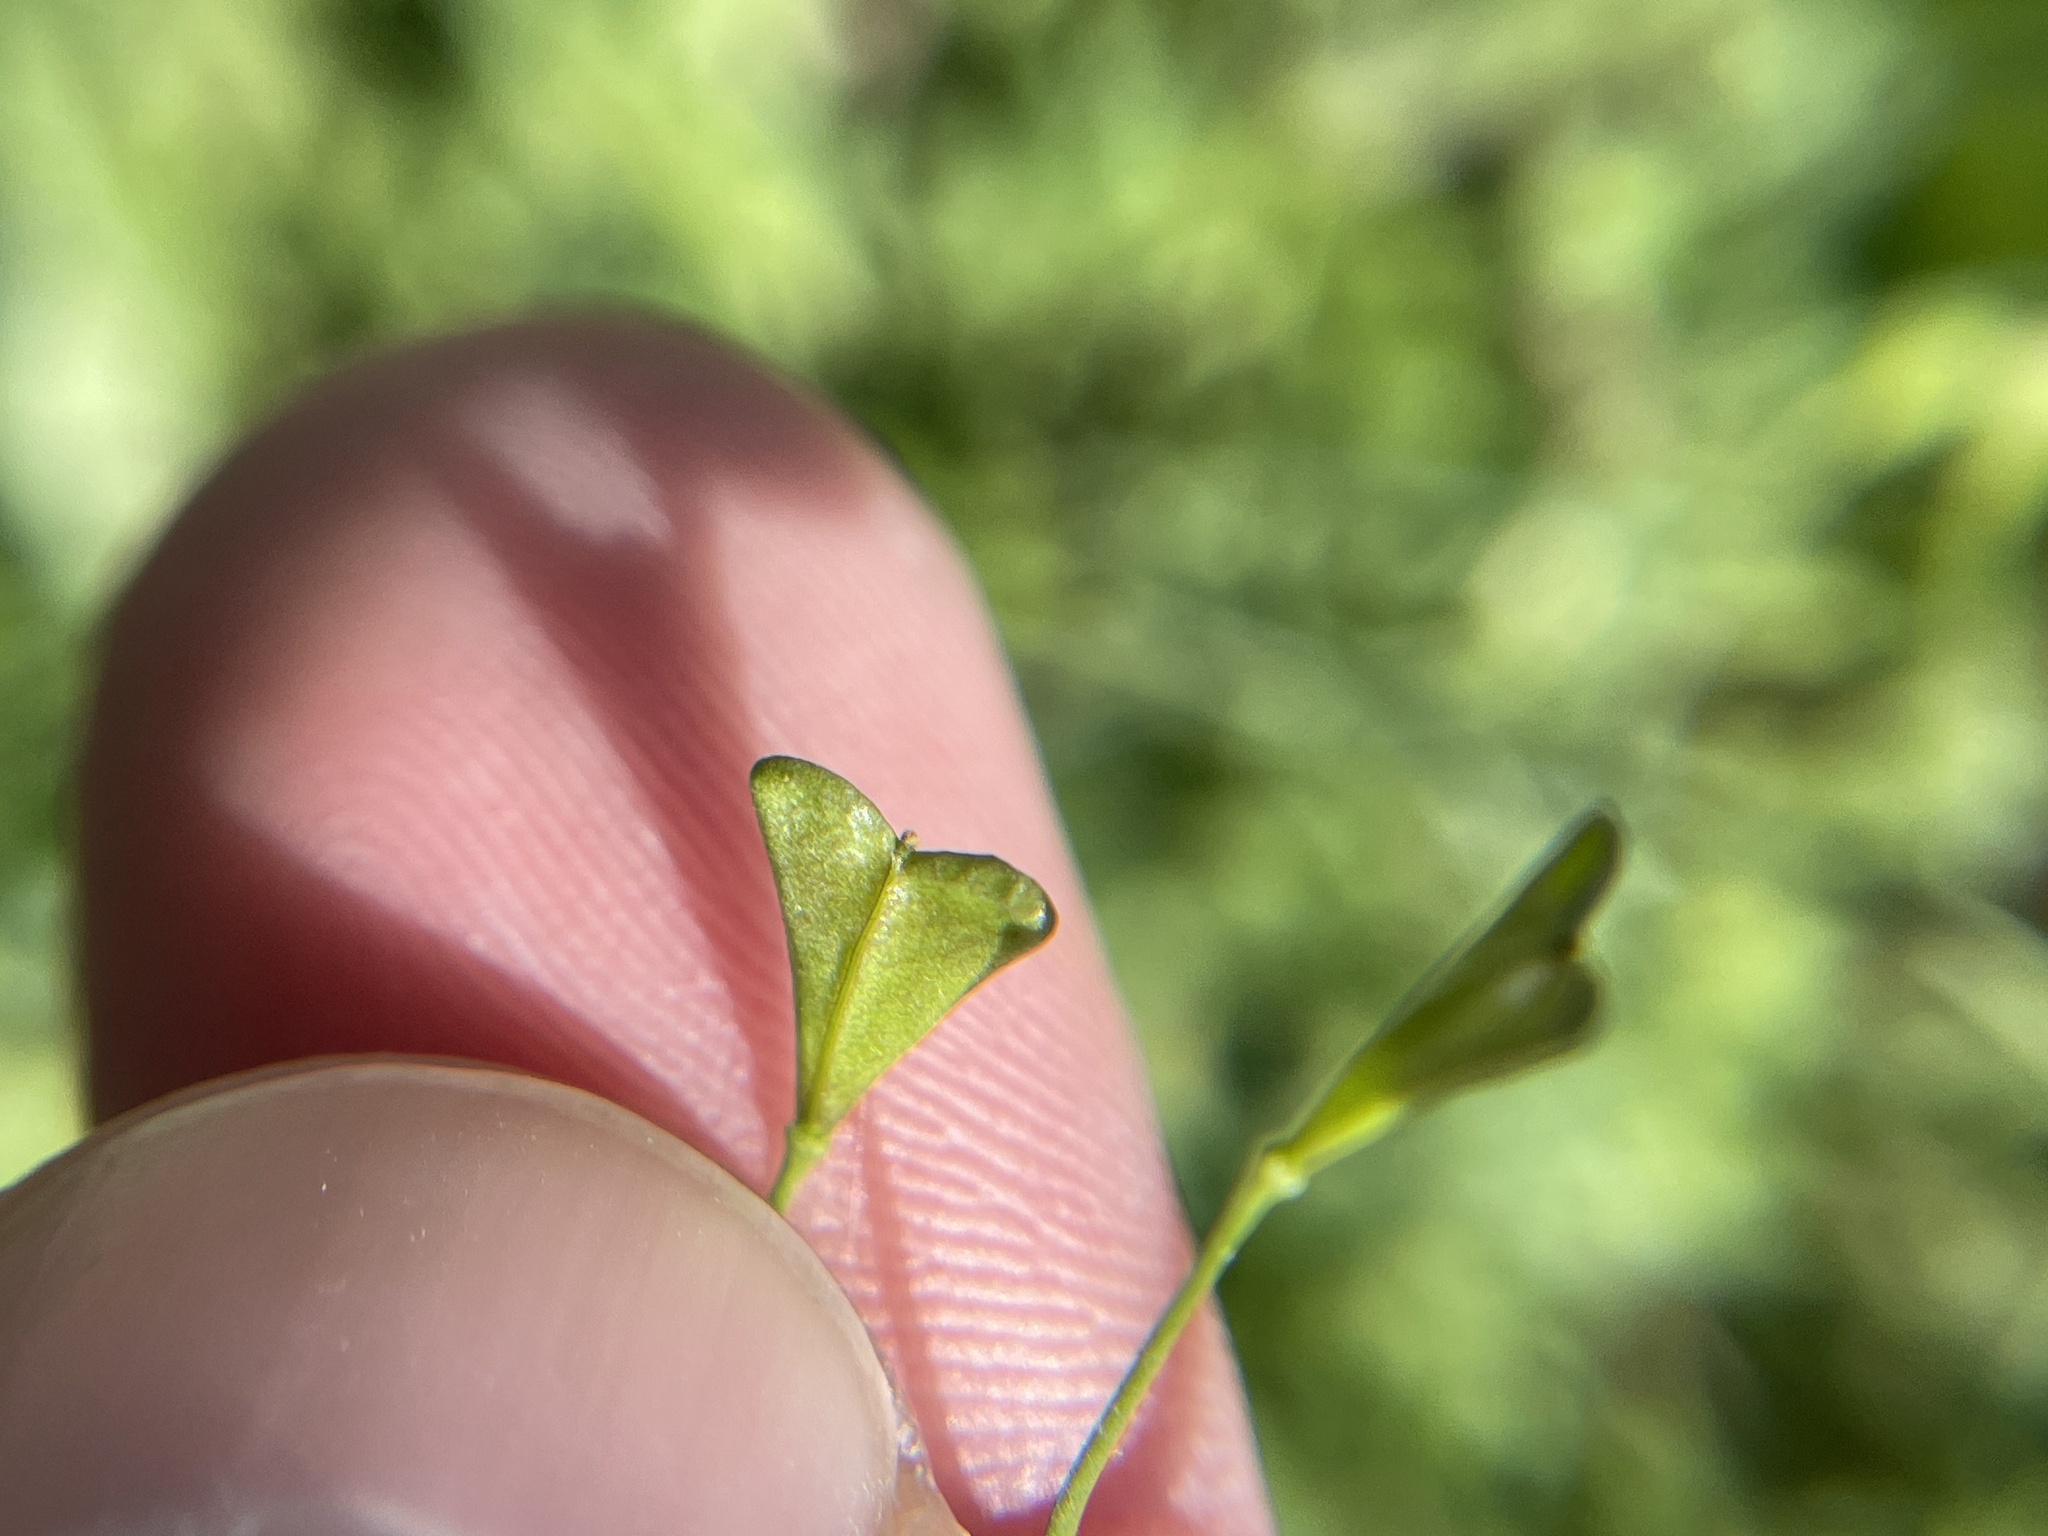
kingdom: Plantae
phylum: Tracheophyta
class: Magnoliopsida
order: Brassicales
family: Brassicaceae
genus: Capsella
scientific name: Capsella bursa-pastoris
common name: Shepherd's purse
